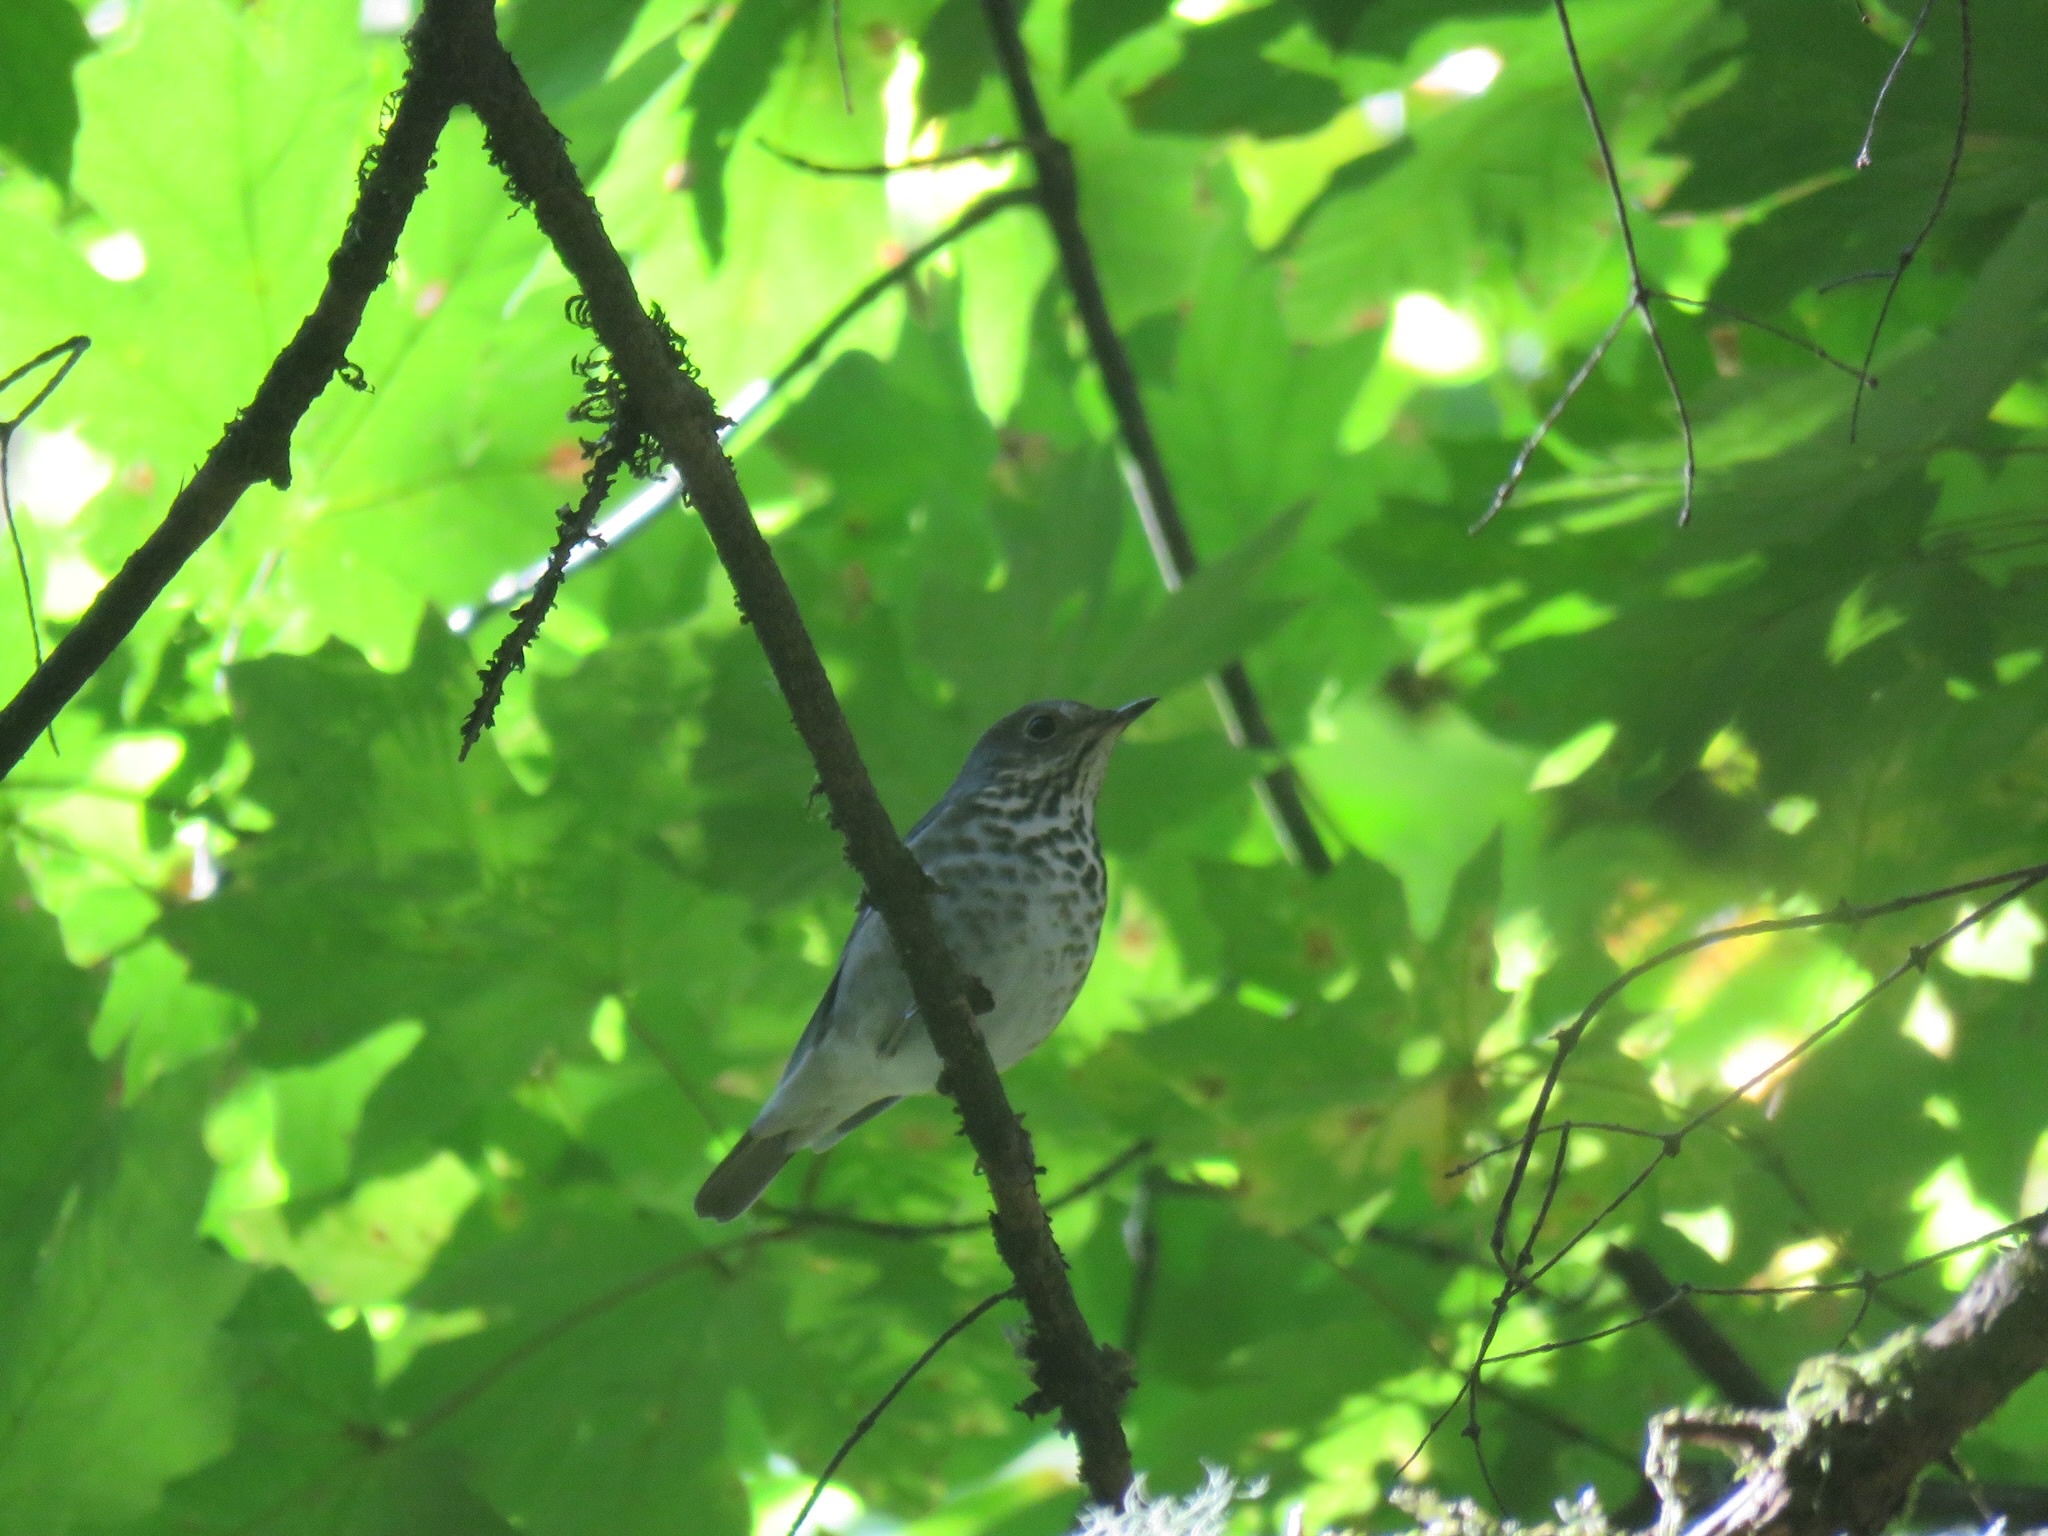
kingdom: Animalia
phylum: Chordata
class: Aves
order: Passeriformes
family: Turdidae
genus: Catharus
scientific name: Catharus guttatus
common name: Hermit thrush
